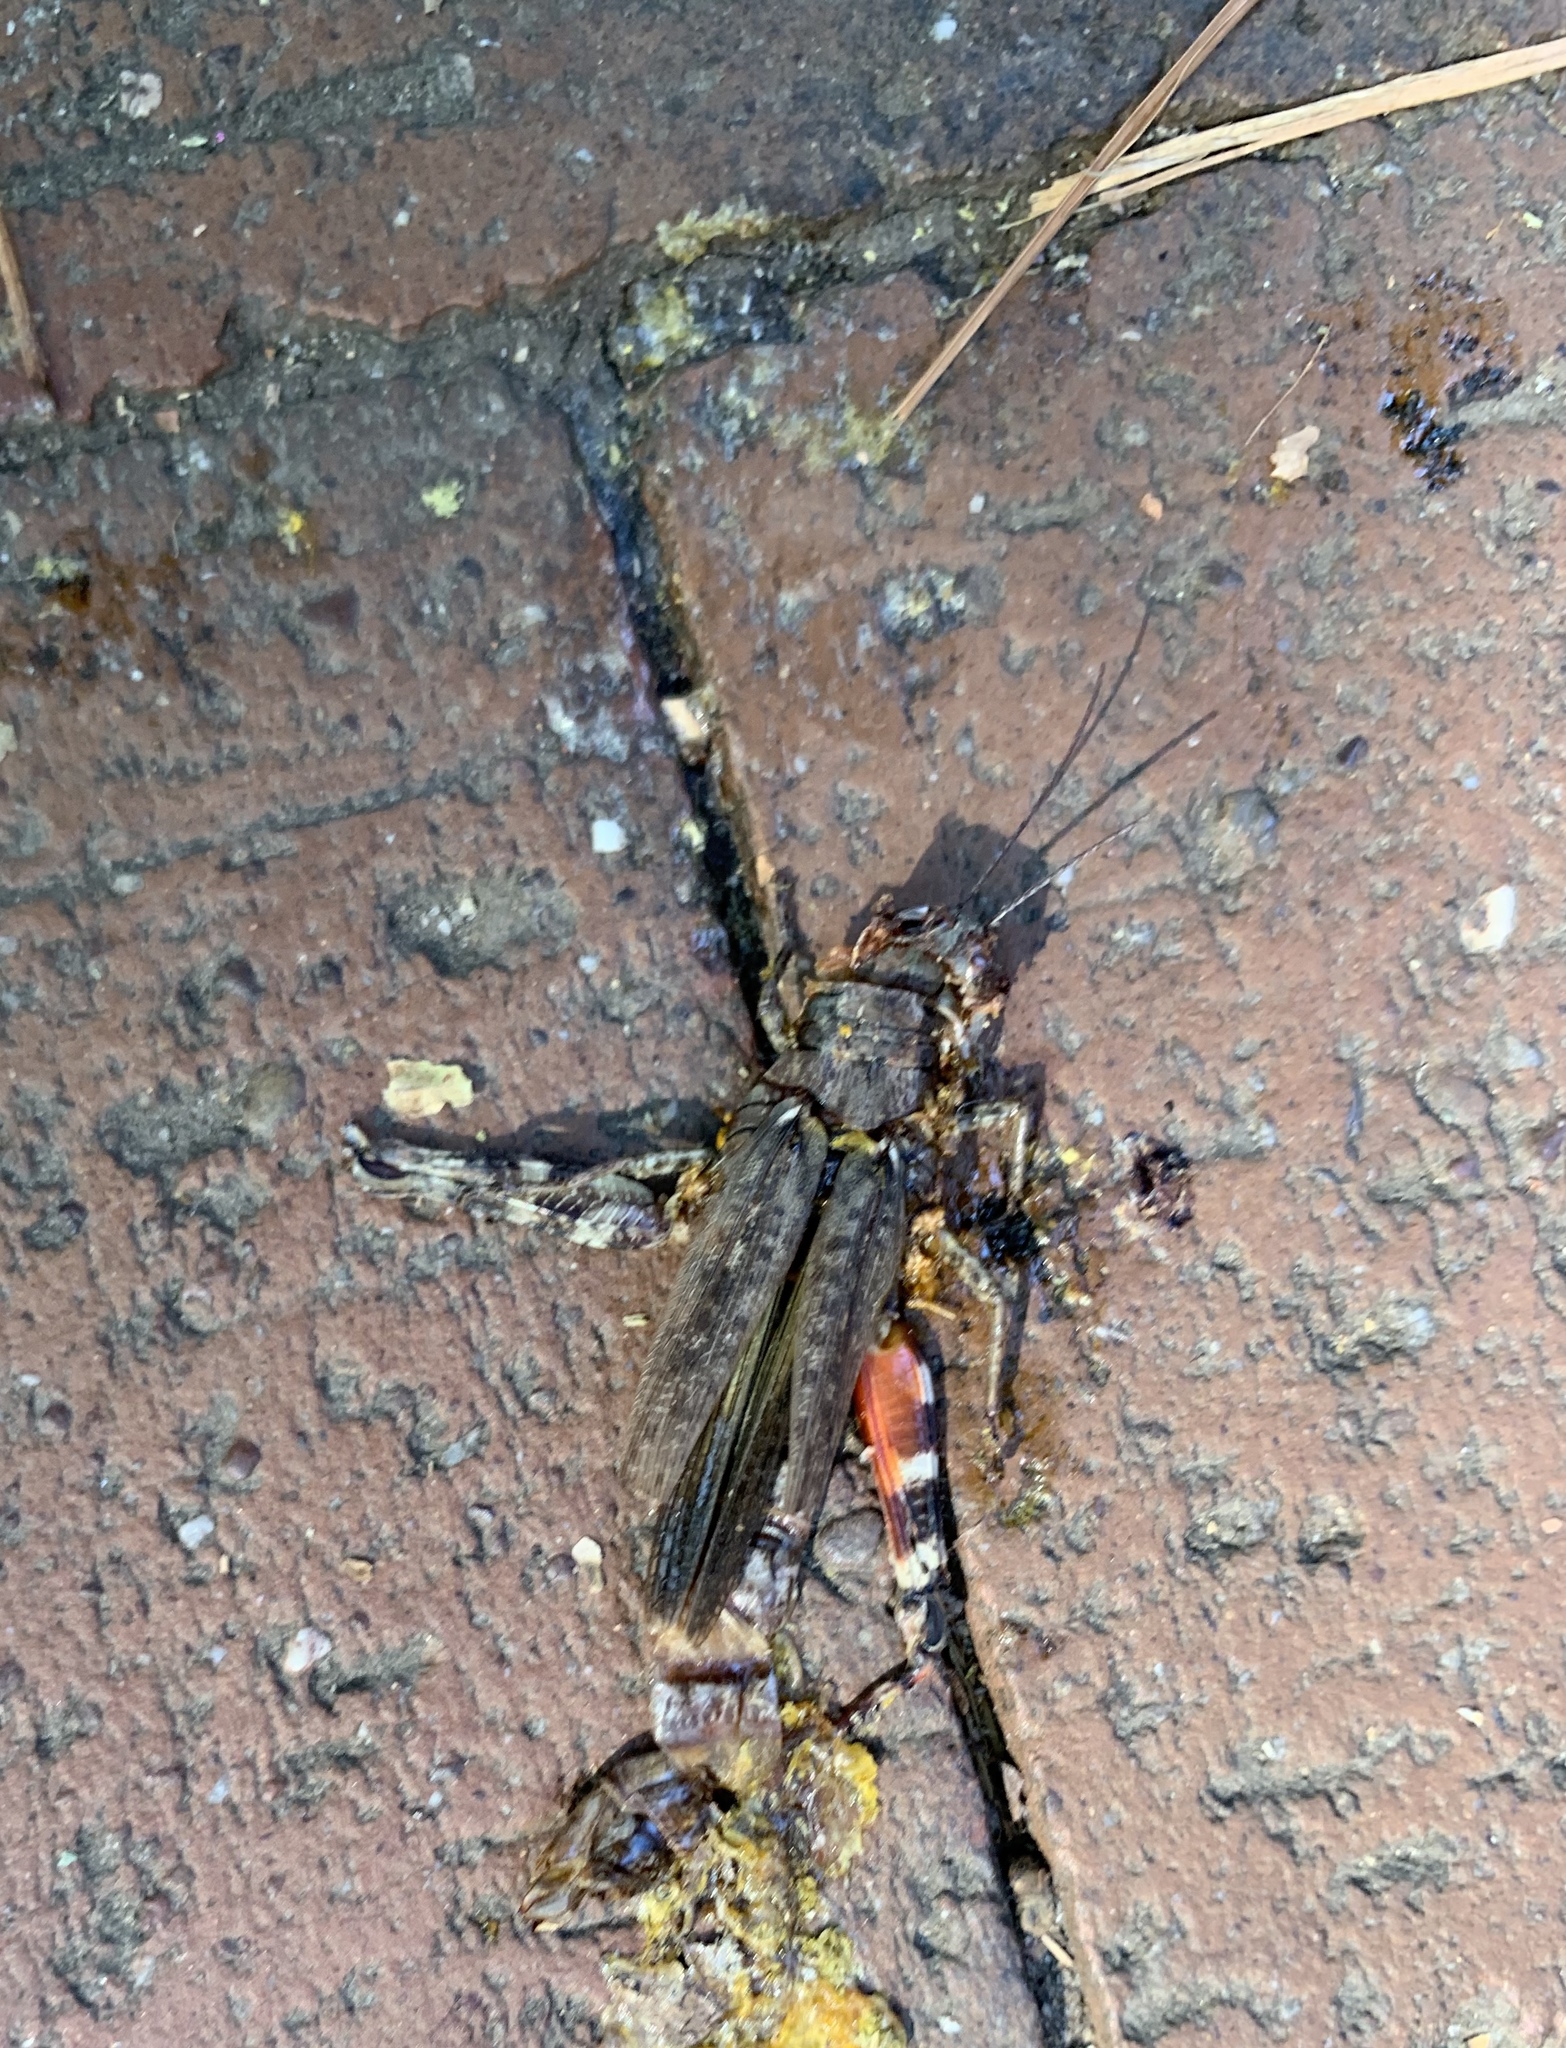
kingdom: Animalia
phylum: Arthropoda
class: Insecta
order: Orthoptera
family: Acrididae
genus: Melanoplus
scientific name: Melanoplus punctulatus
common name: Pine-tree spur-throat grasshopper
